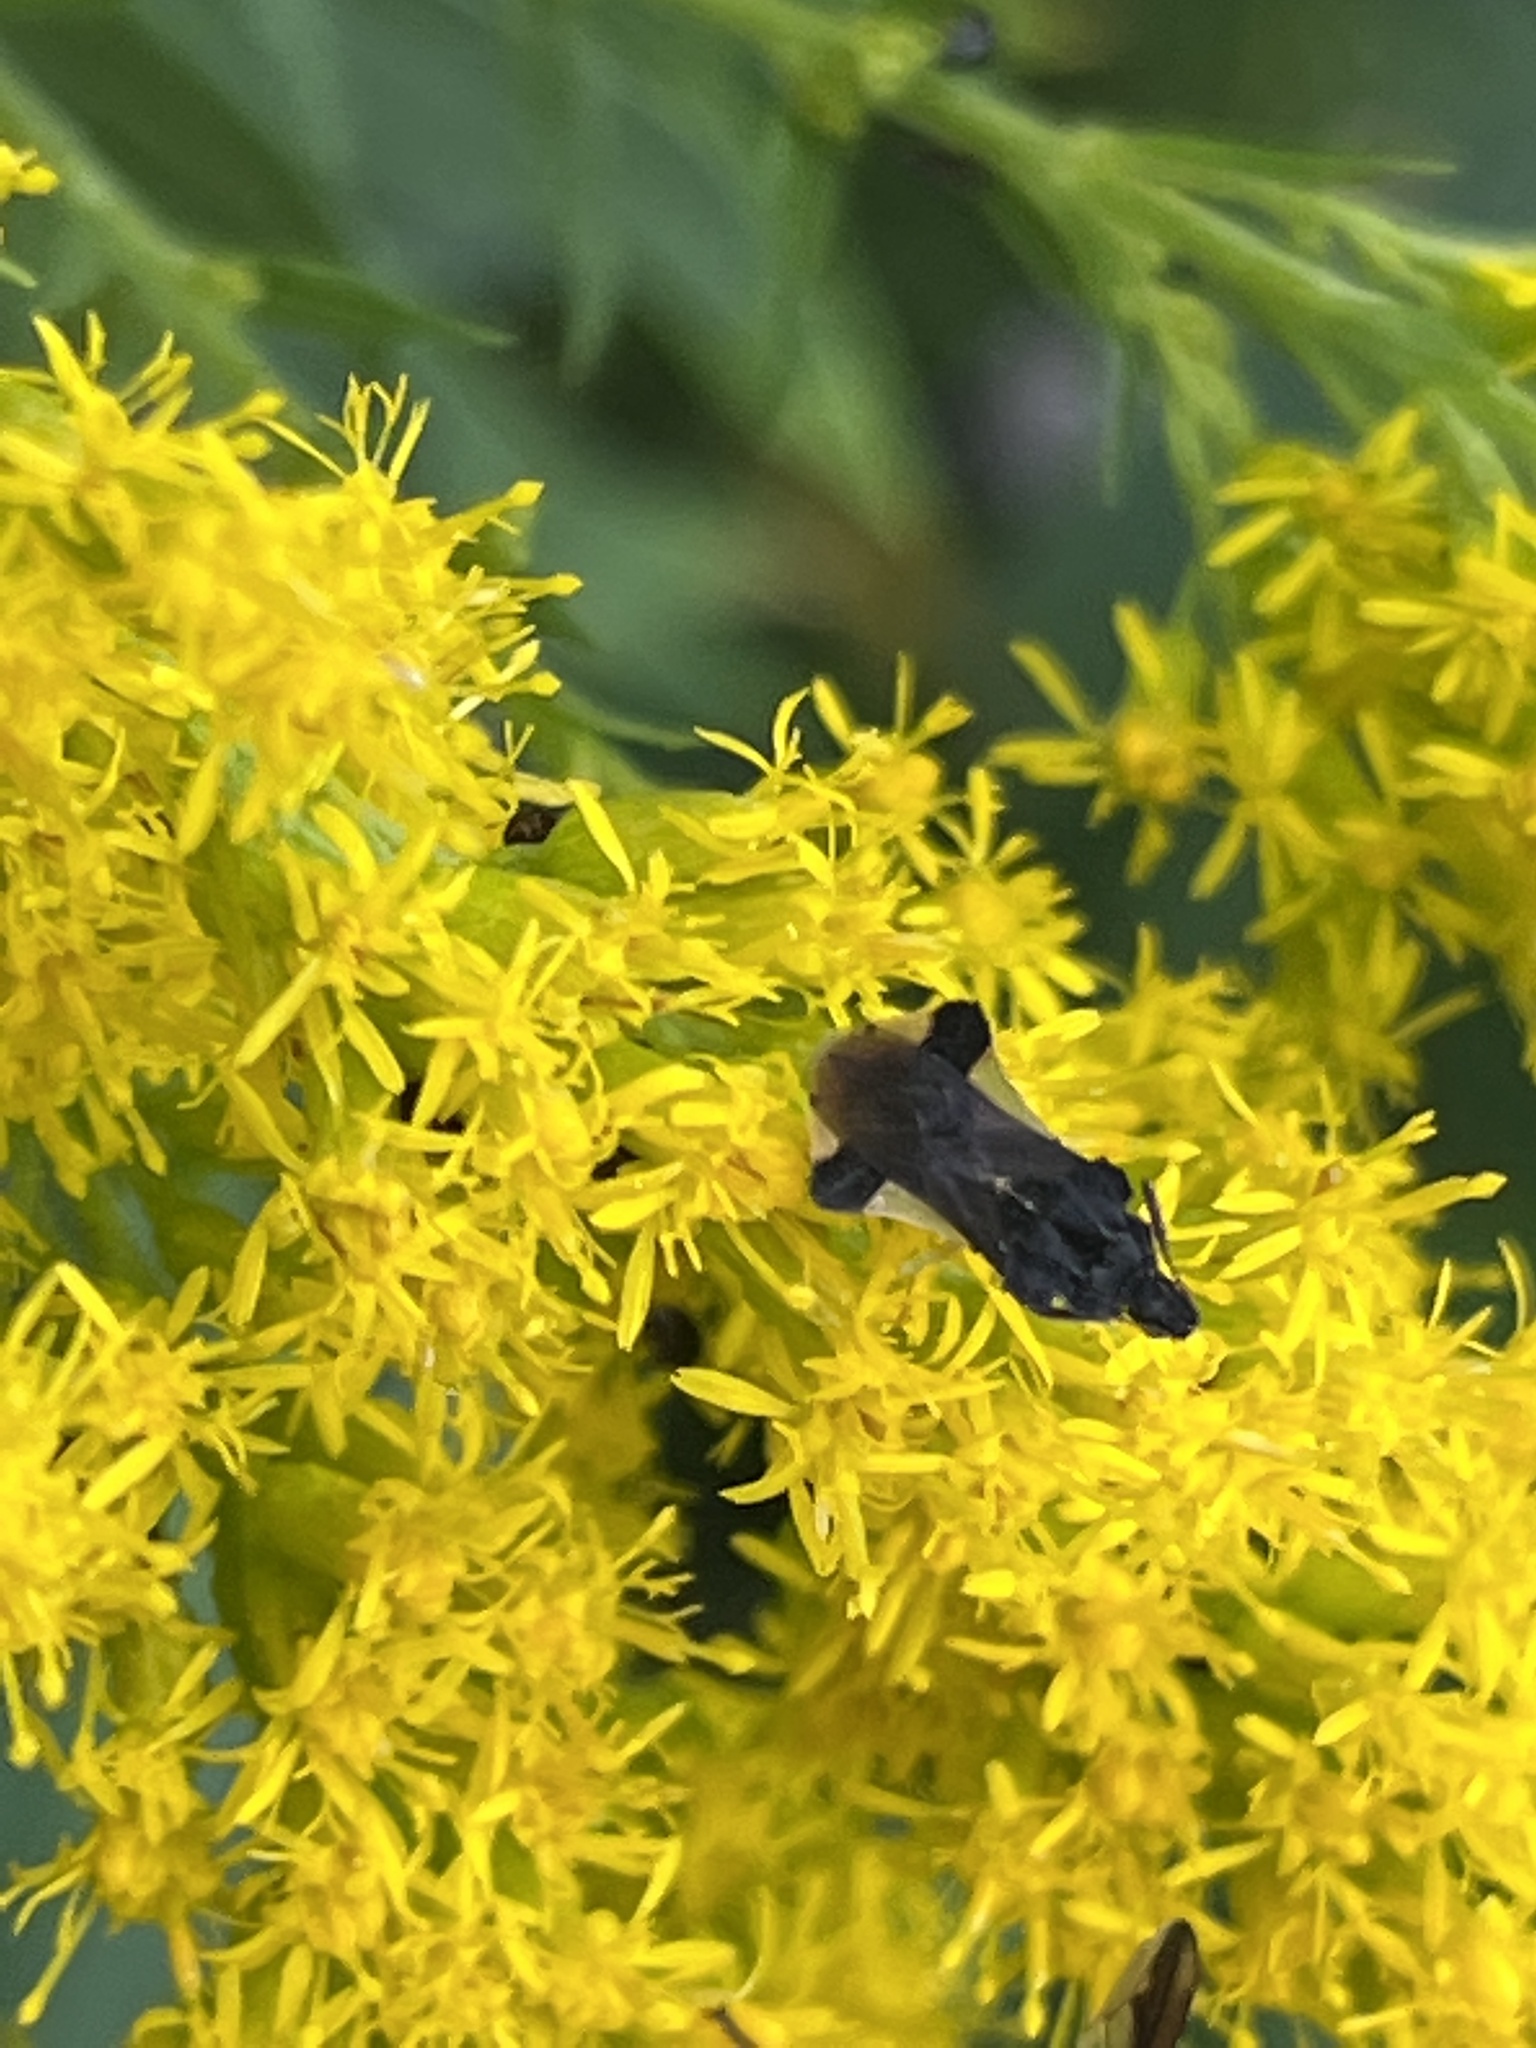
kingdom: Animalia
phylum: Arthropoda
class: Insecta
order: Hemiptera
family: Reduviidae
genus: Phymata
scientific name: Phymata pennsylvanica
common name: Pennsylvania ambush bug
